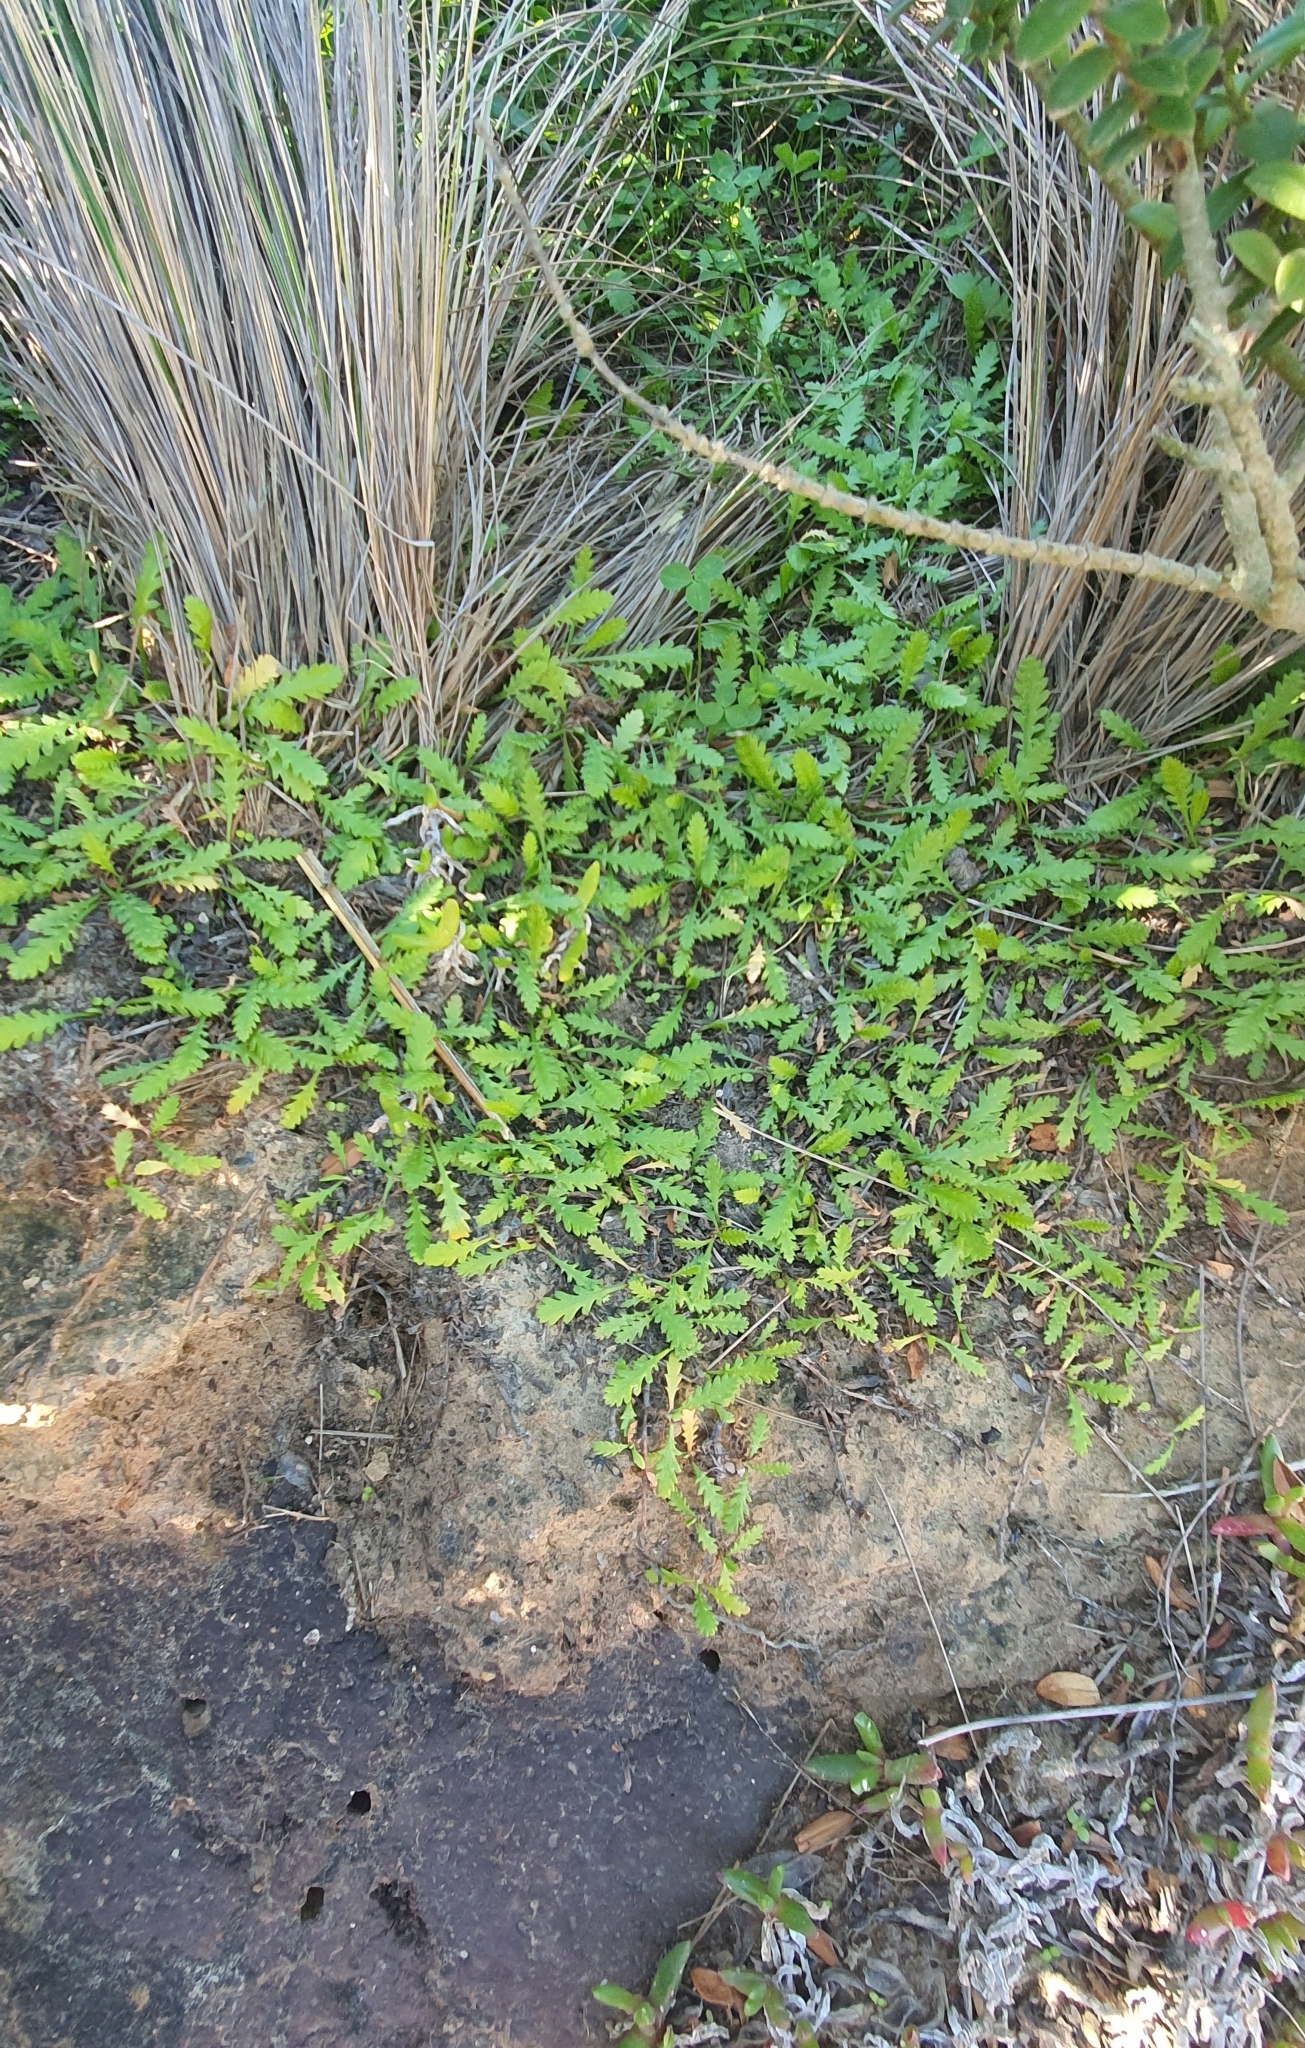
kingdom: Plantae
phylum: Tracheophyta
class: Magnoliopsida
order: Asterales
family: Asteraceae
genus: Leptinella
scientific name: Leptinella dioica
